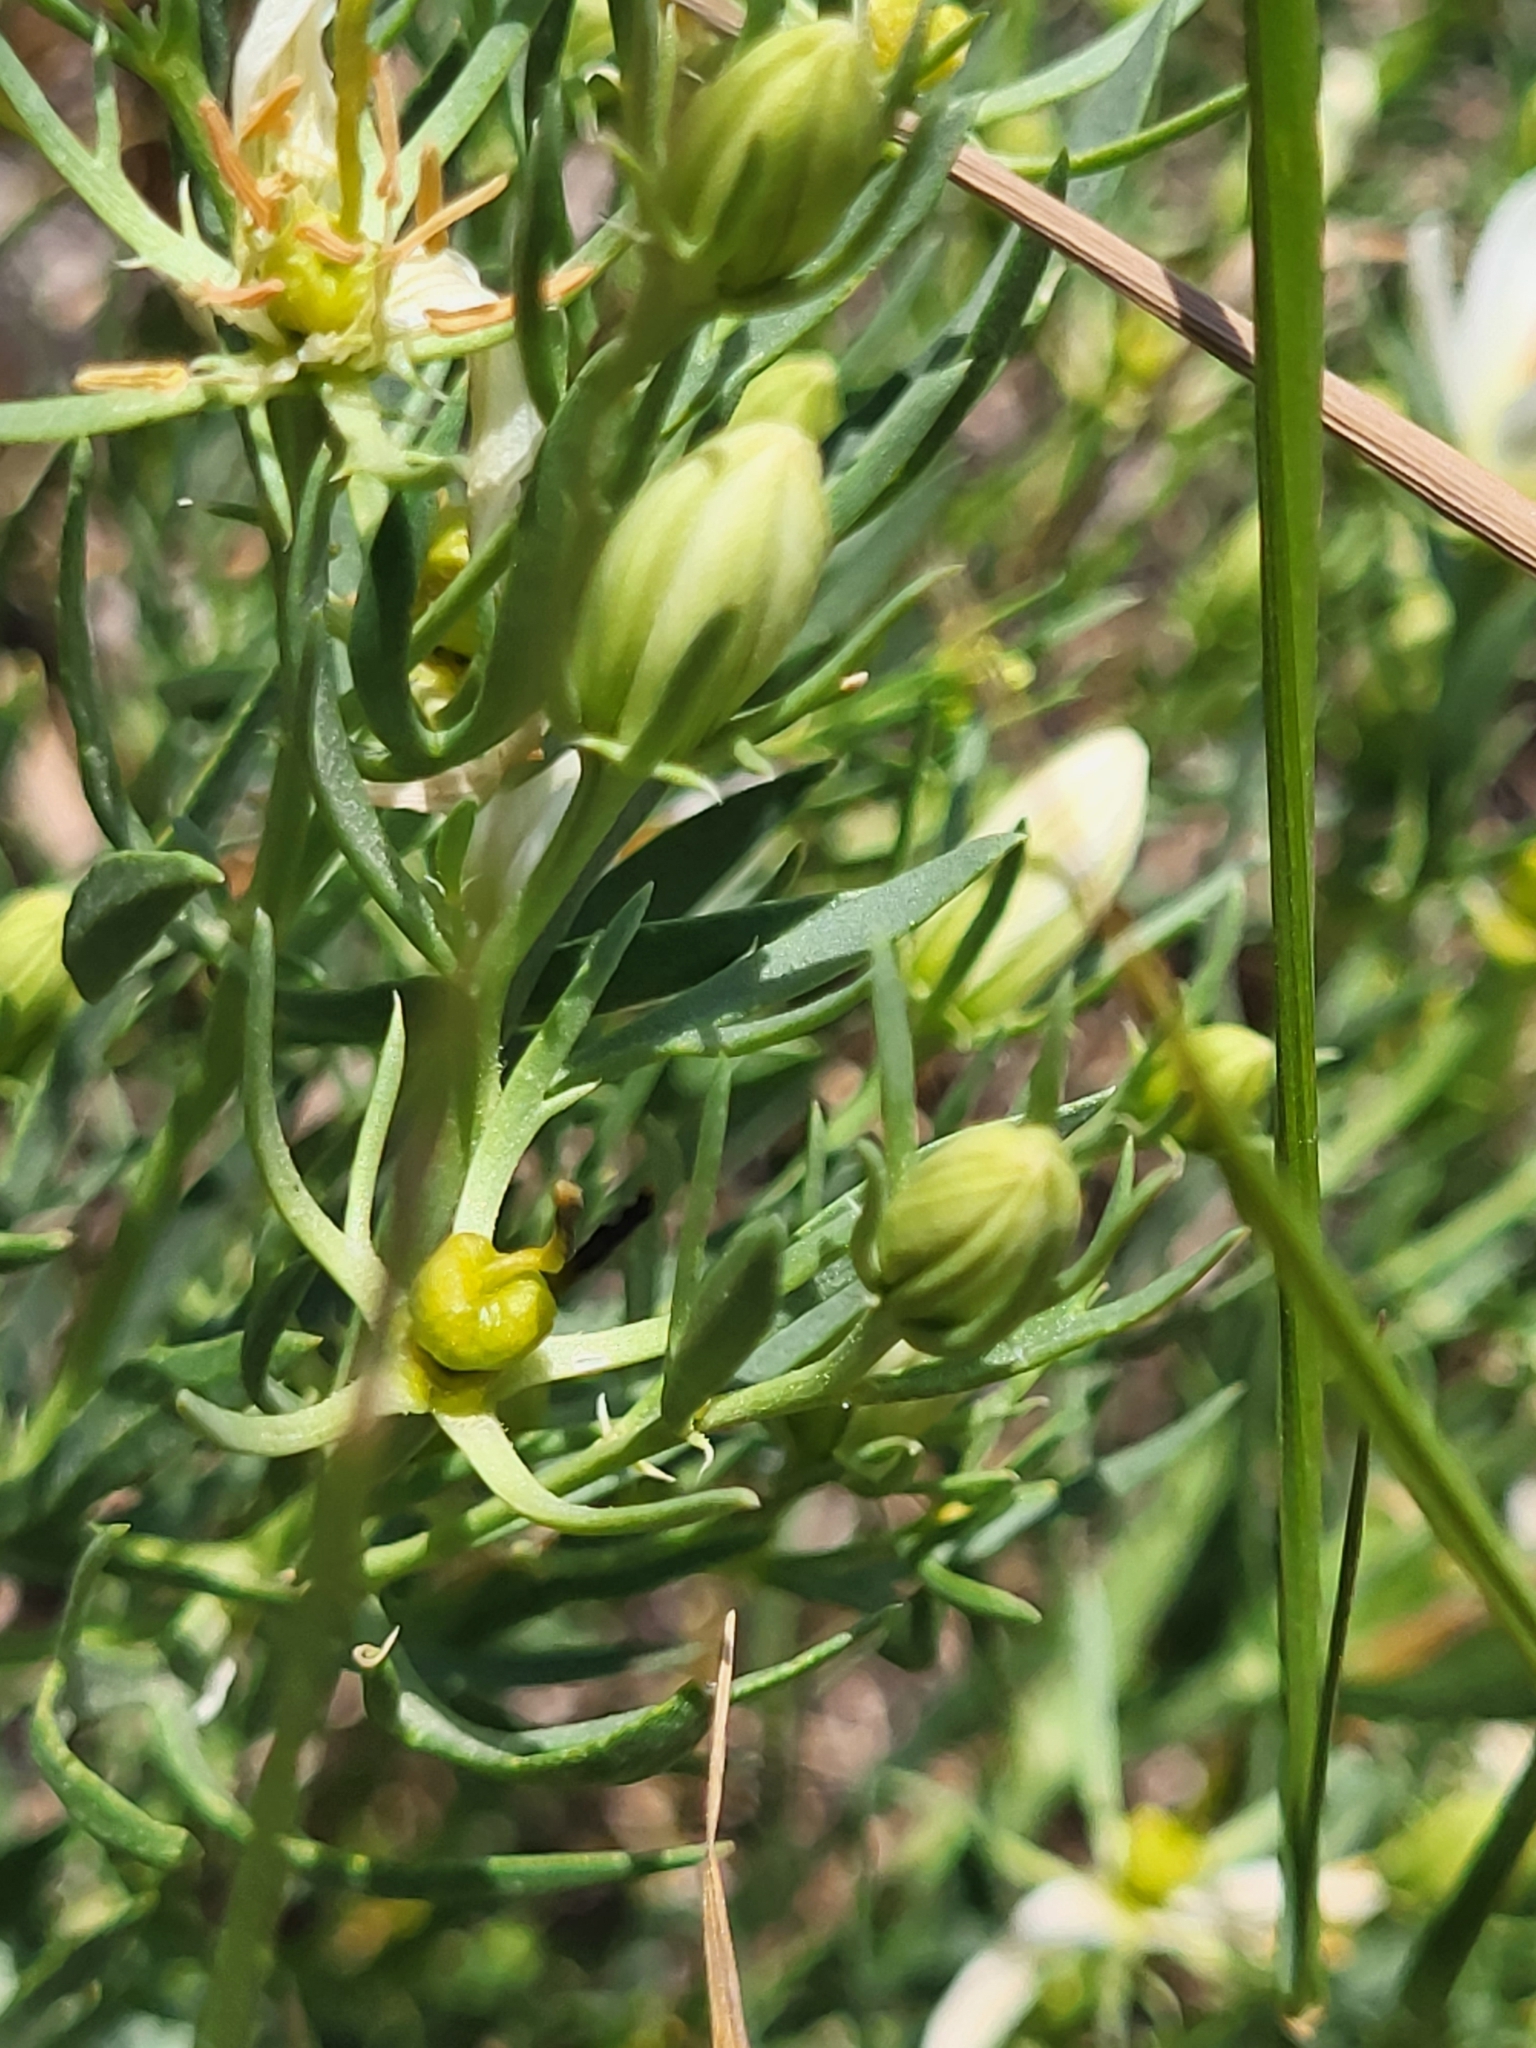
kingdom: Plantae
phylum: Tracheophyta
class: Magnoliopsida
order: Sapindales
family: Tetradiclidaceae
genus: Peganum
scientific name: Peganum harmala
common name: Harmal peganum
